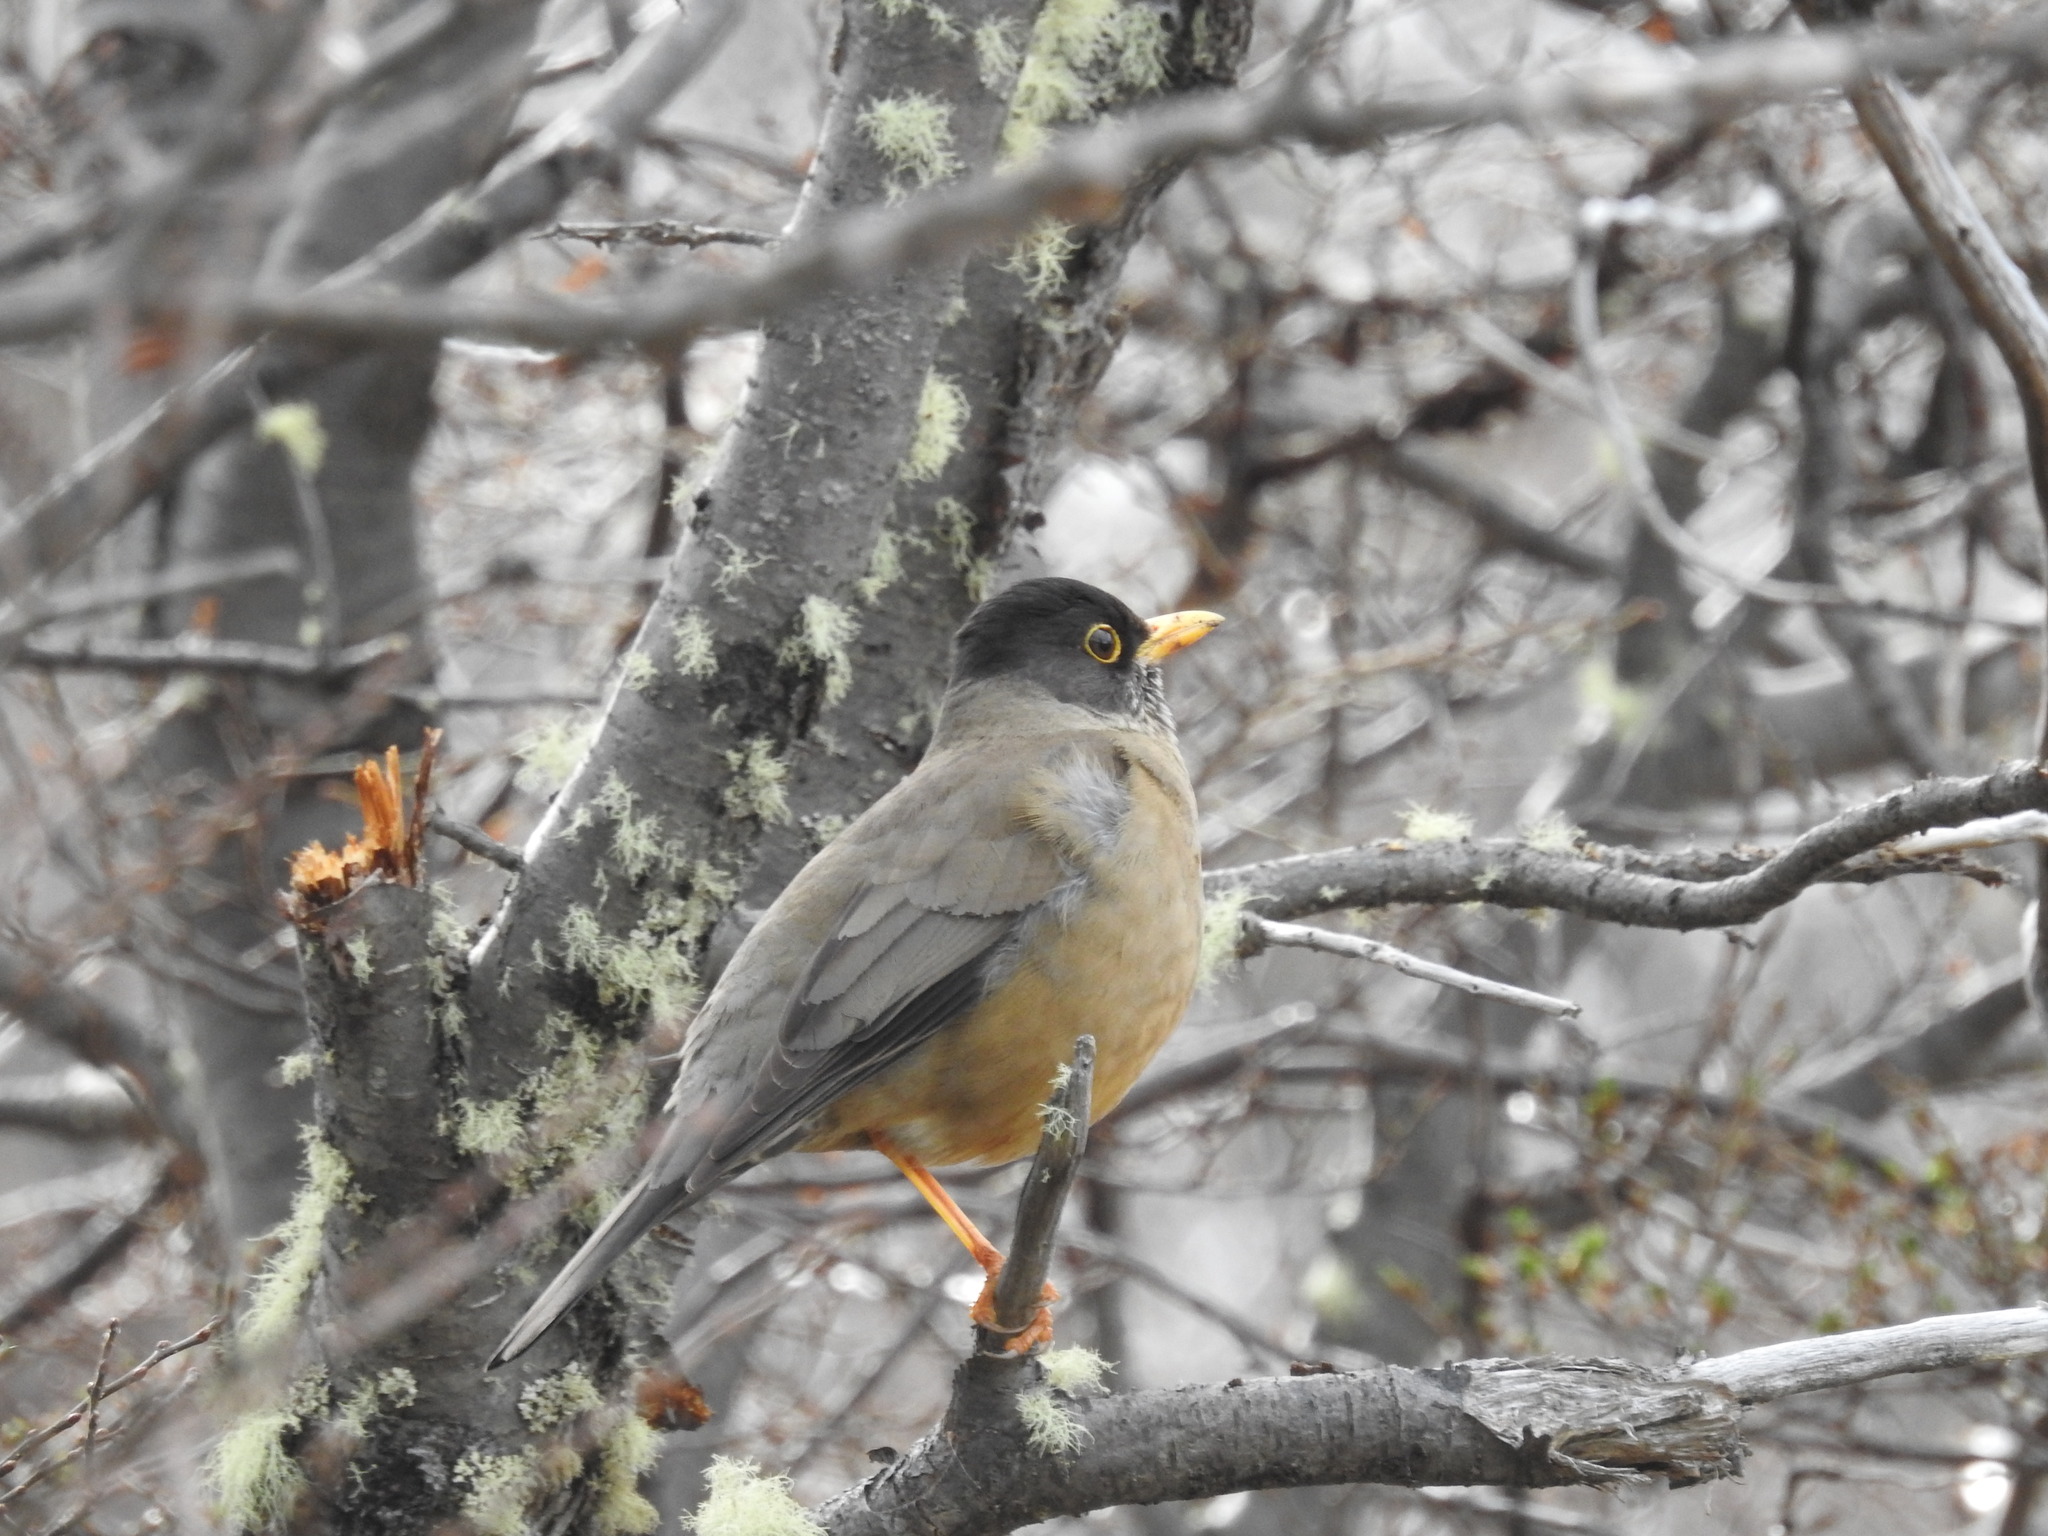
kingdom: Animalia
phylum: Chordata
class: Aves
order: Passeriformes
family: Turdidae
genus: Turdus
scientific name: Turdus falcklandii
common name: Austral thrush
